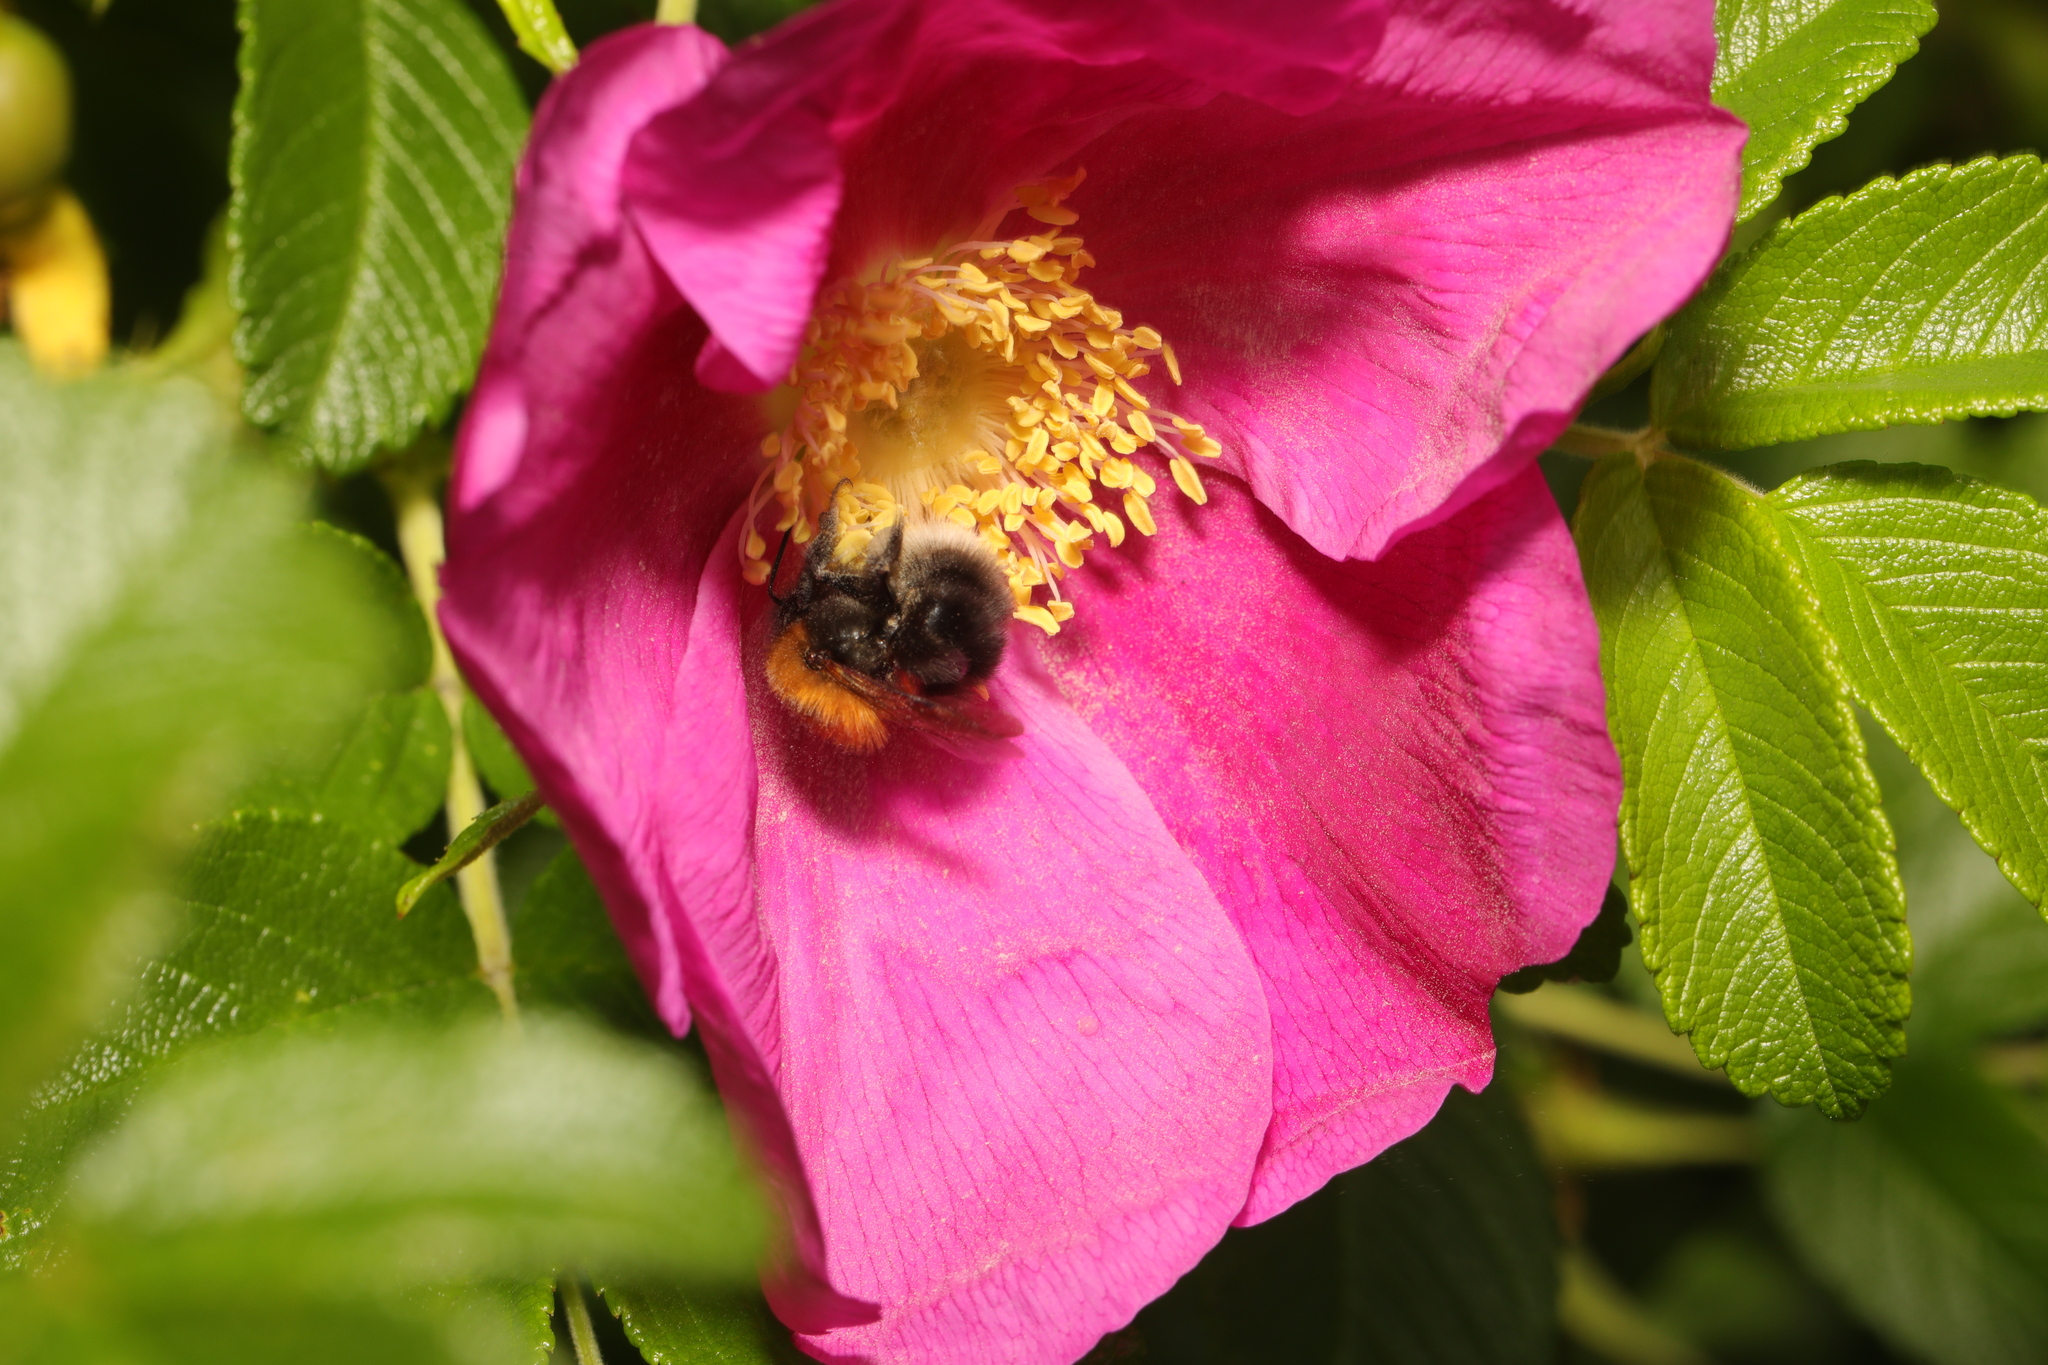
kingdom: Animalia
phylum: Arthropoda
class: Insecta
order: Hymenoptera
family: Apidae
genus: Bombus
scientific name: Bombus hypnorum
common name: New garden bumblebee
